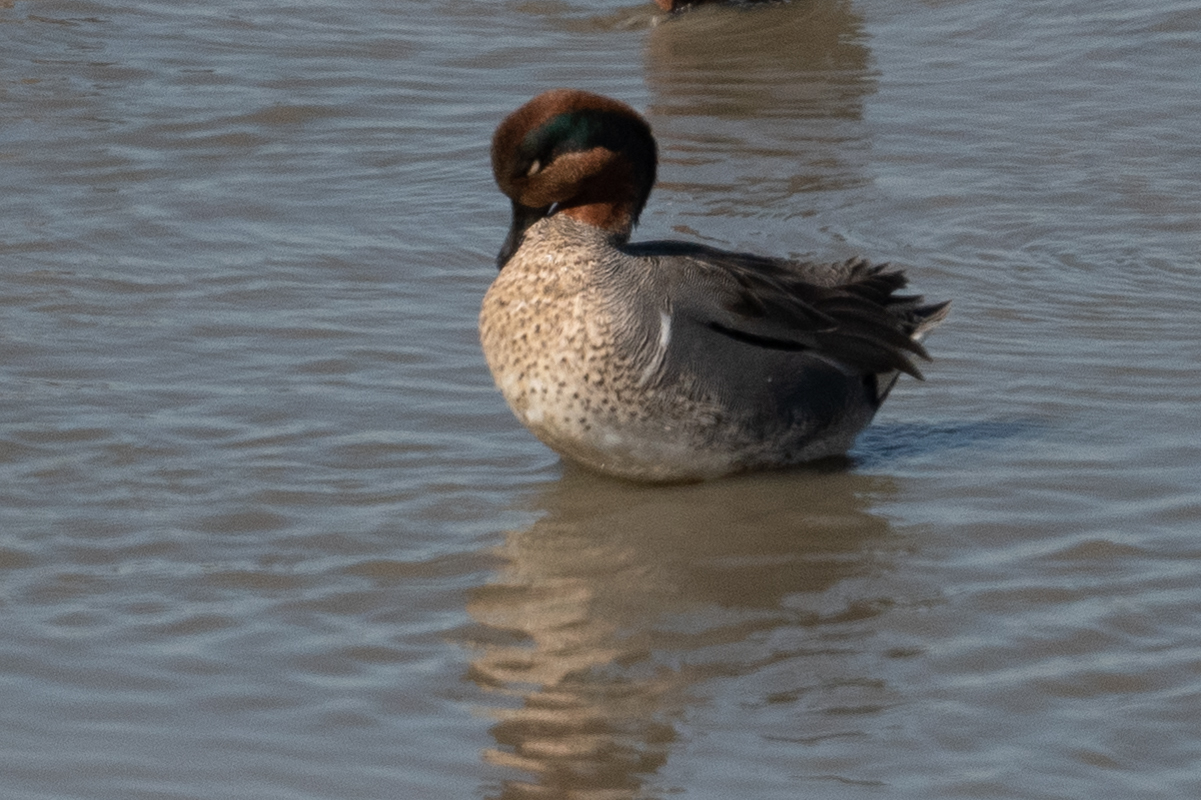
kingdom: Animalia
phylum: Chordata
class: Aves
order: Anseriformes
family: Anatidae
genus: Anas
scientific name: Anas crecca
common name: Eurasian teal
